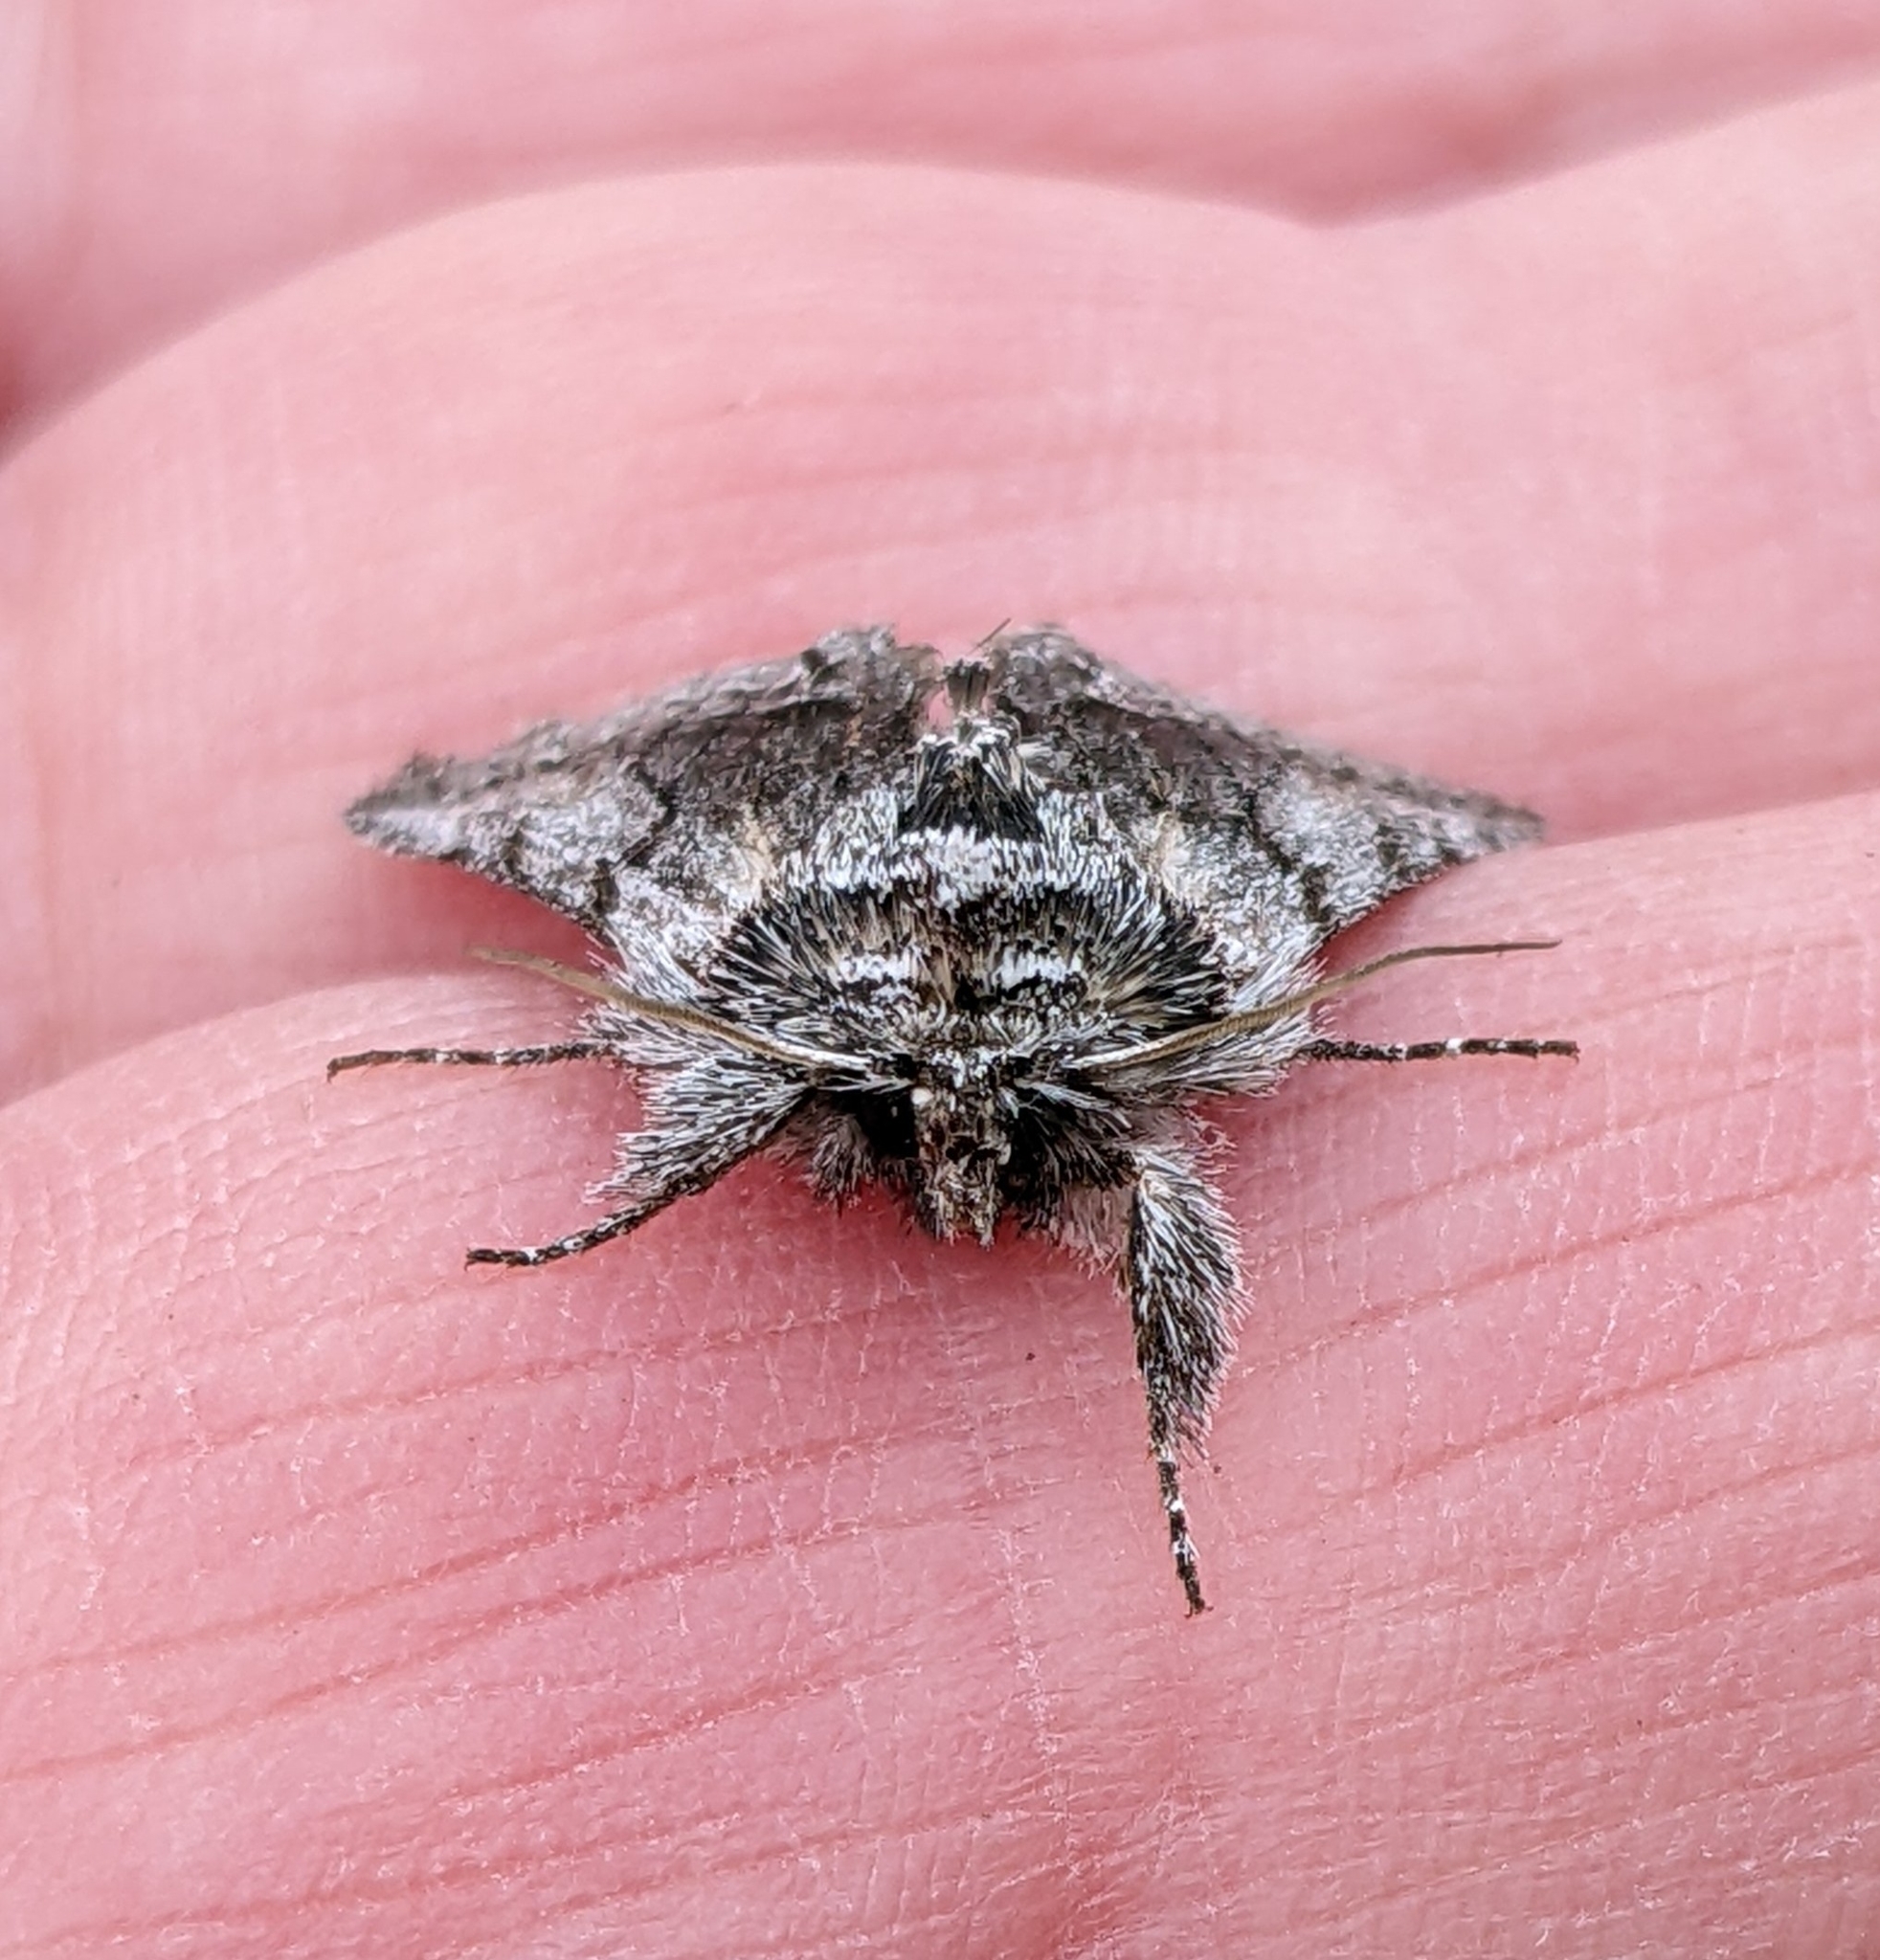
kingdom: Animalia
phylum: Arthropoda
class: Insecta
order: Lepidoptera
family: Noctuidae
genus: Pleromelloida
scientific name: Pleromelloida bonuscula
